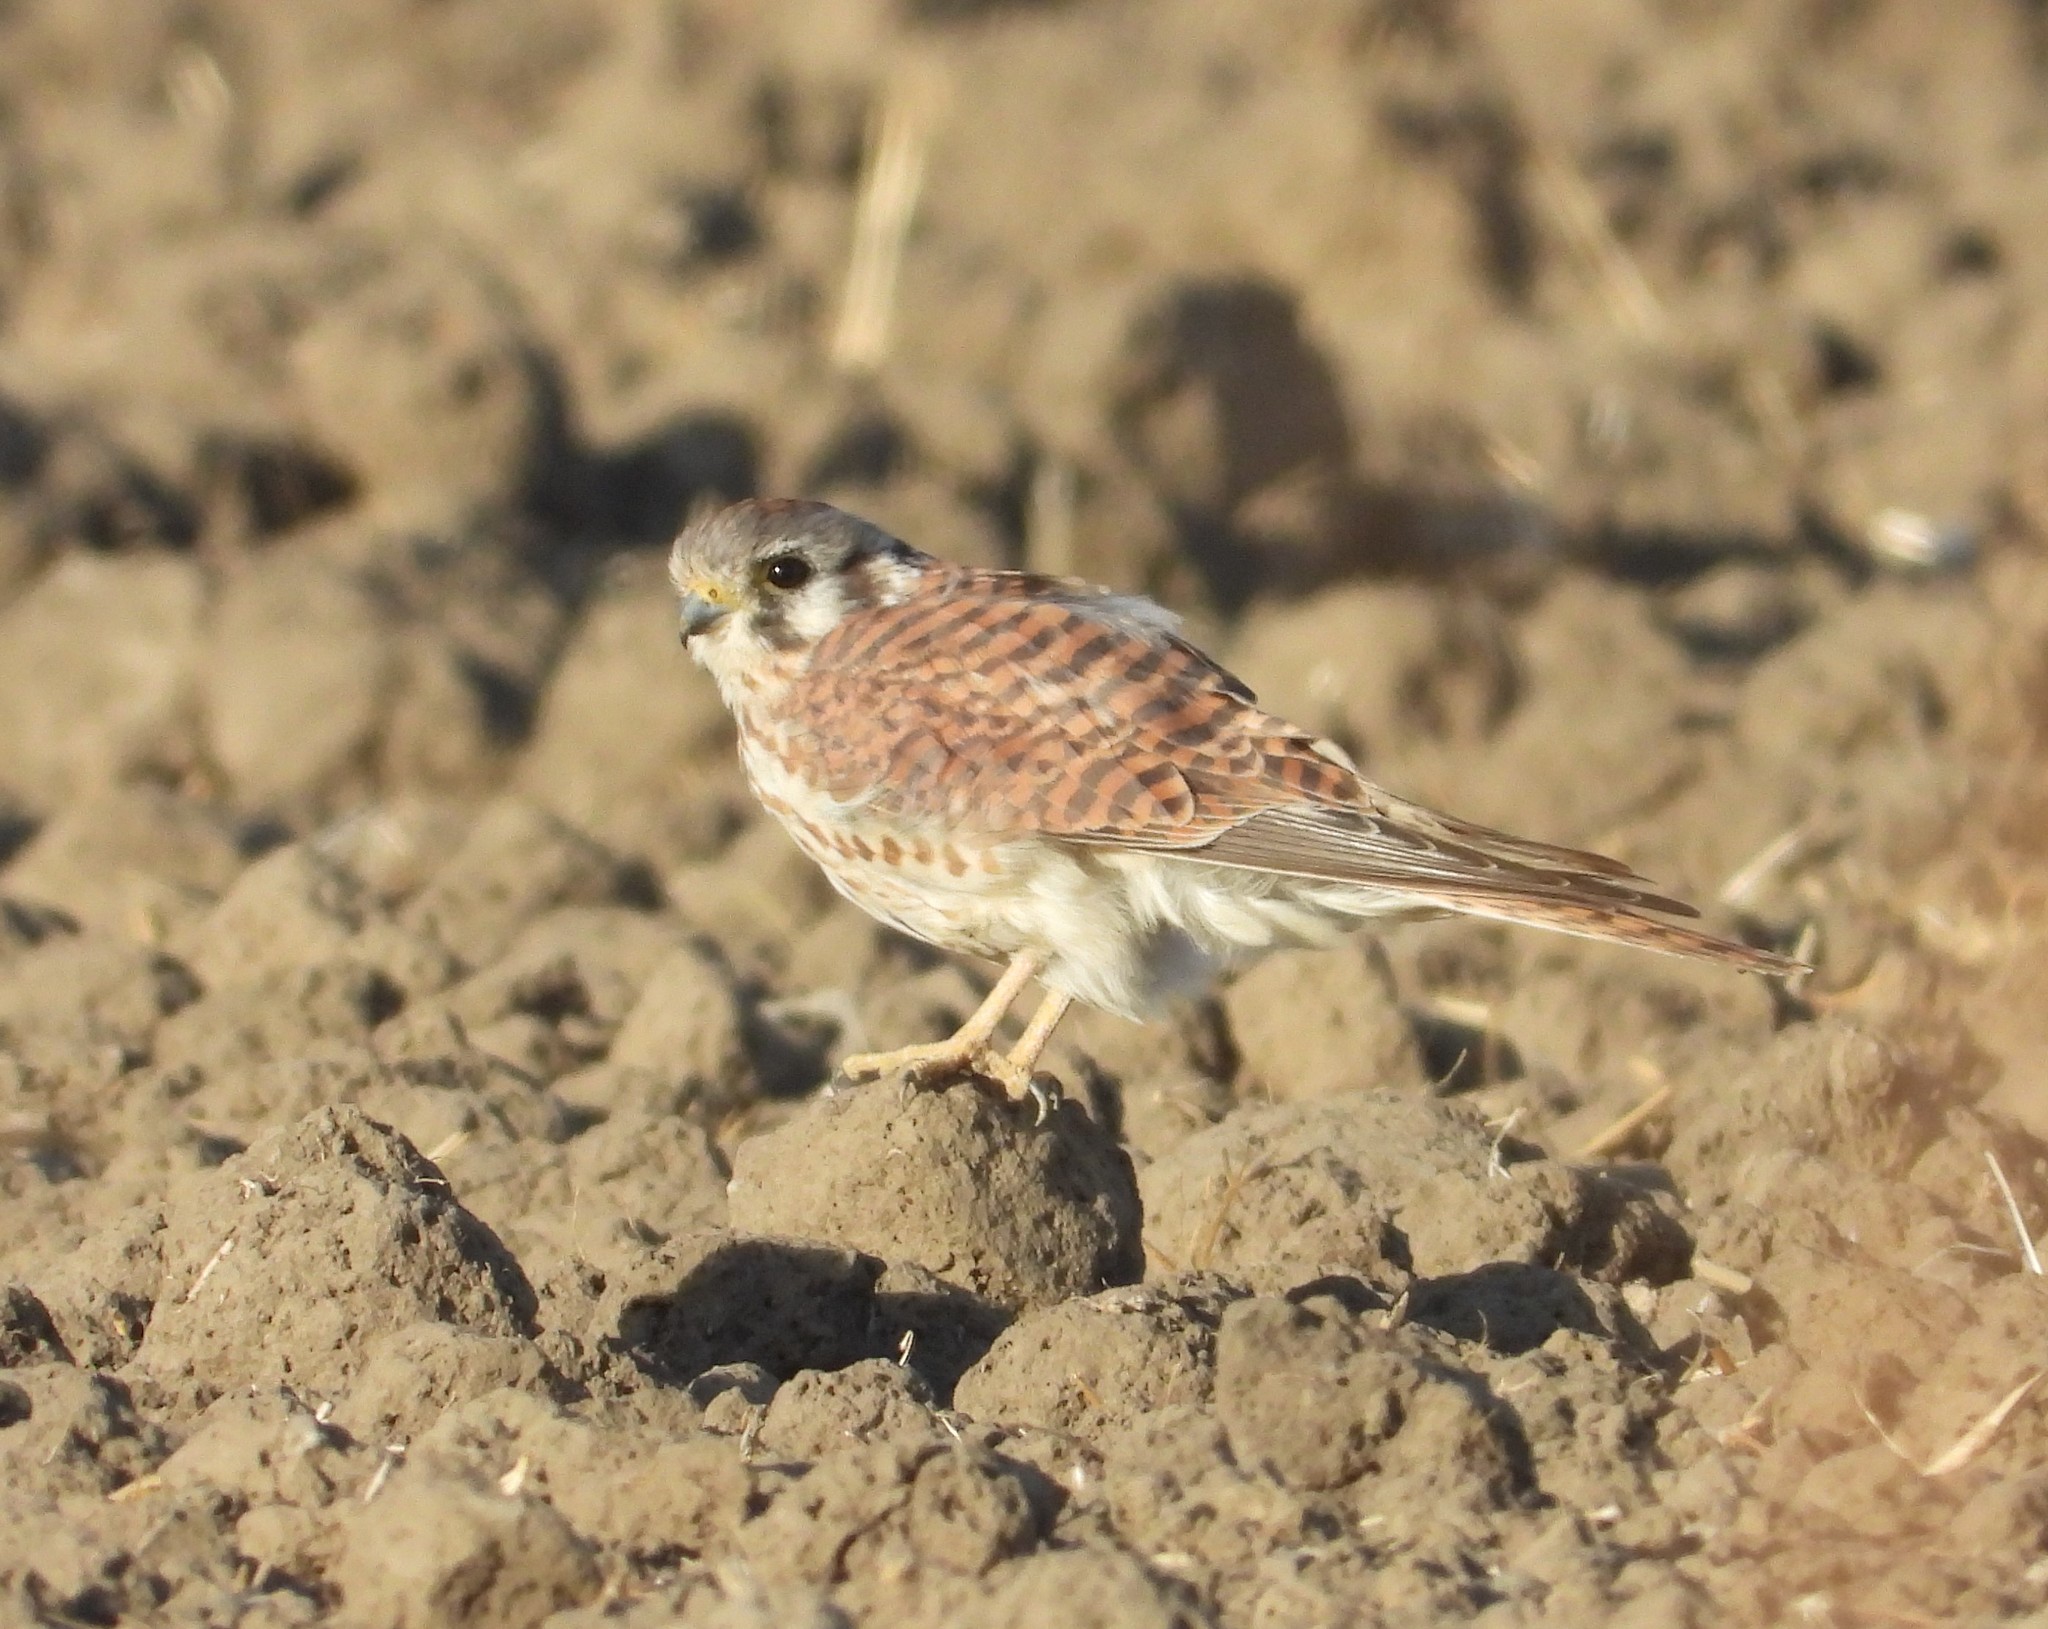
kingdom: Animalia
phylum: Chordata
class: Aves
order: Falconiformes
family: Falconidae
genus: Falco
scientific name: Falco sparverius
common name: American kestrel
